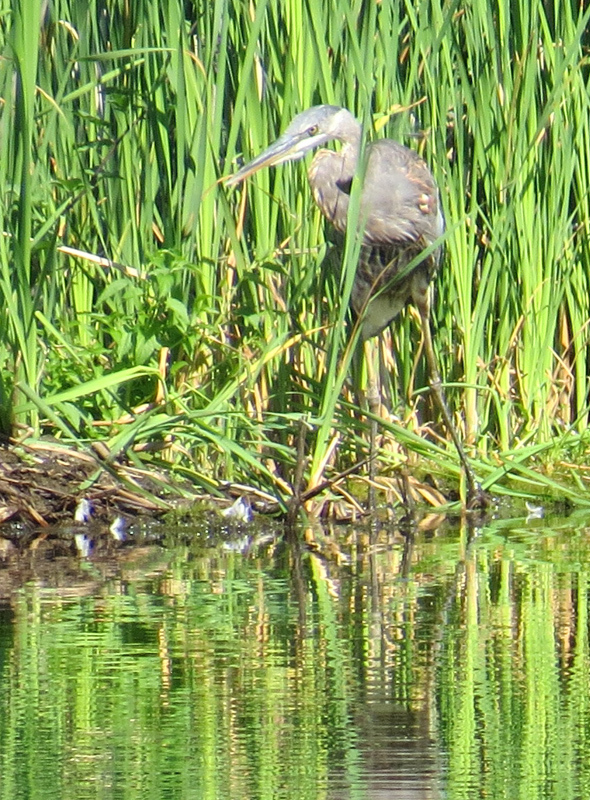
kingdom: Animalia
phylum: Chordata
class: Aves
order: Pelecaniformes
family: Ardeidae
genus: Ardea
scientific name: Ardea herodias
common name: Great blue heron
